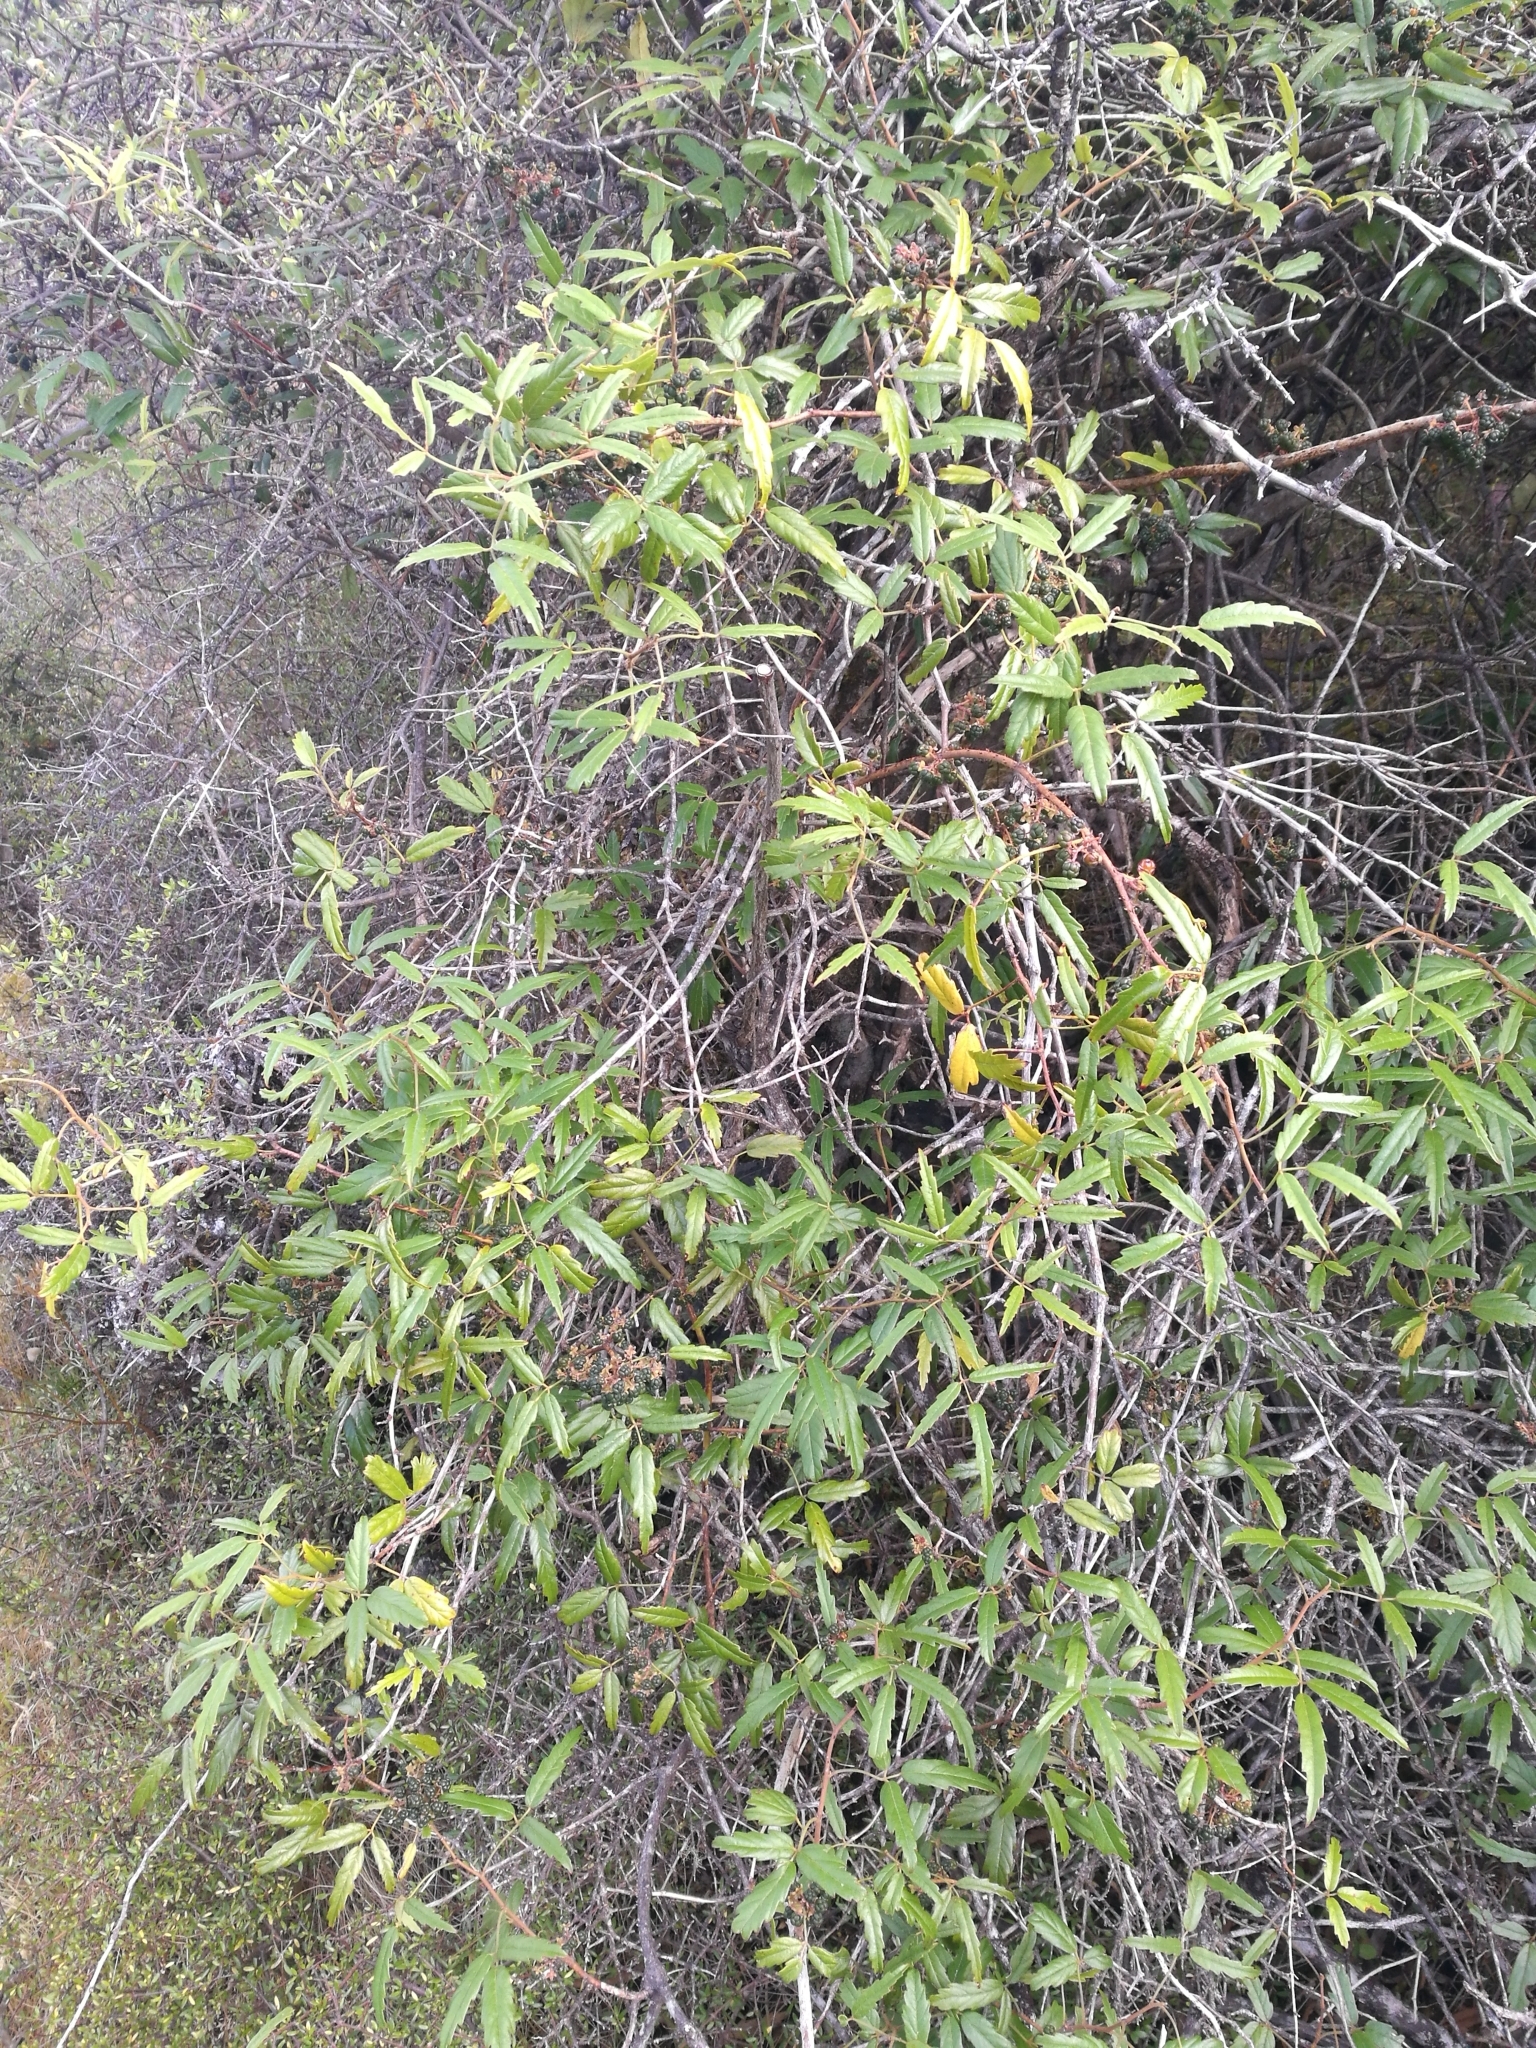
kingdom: Plantae
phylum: Tracheophyta
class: Magnoliopsida
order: Rosales
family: Rosaceae
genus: Rubus
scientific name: Rubus schmidelioides
